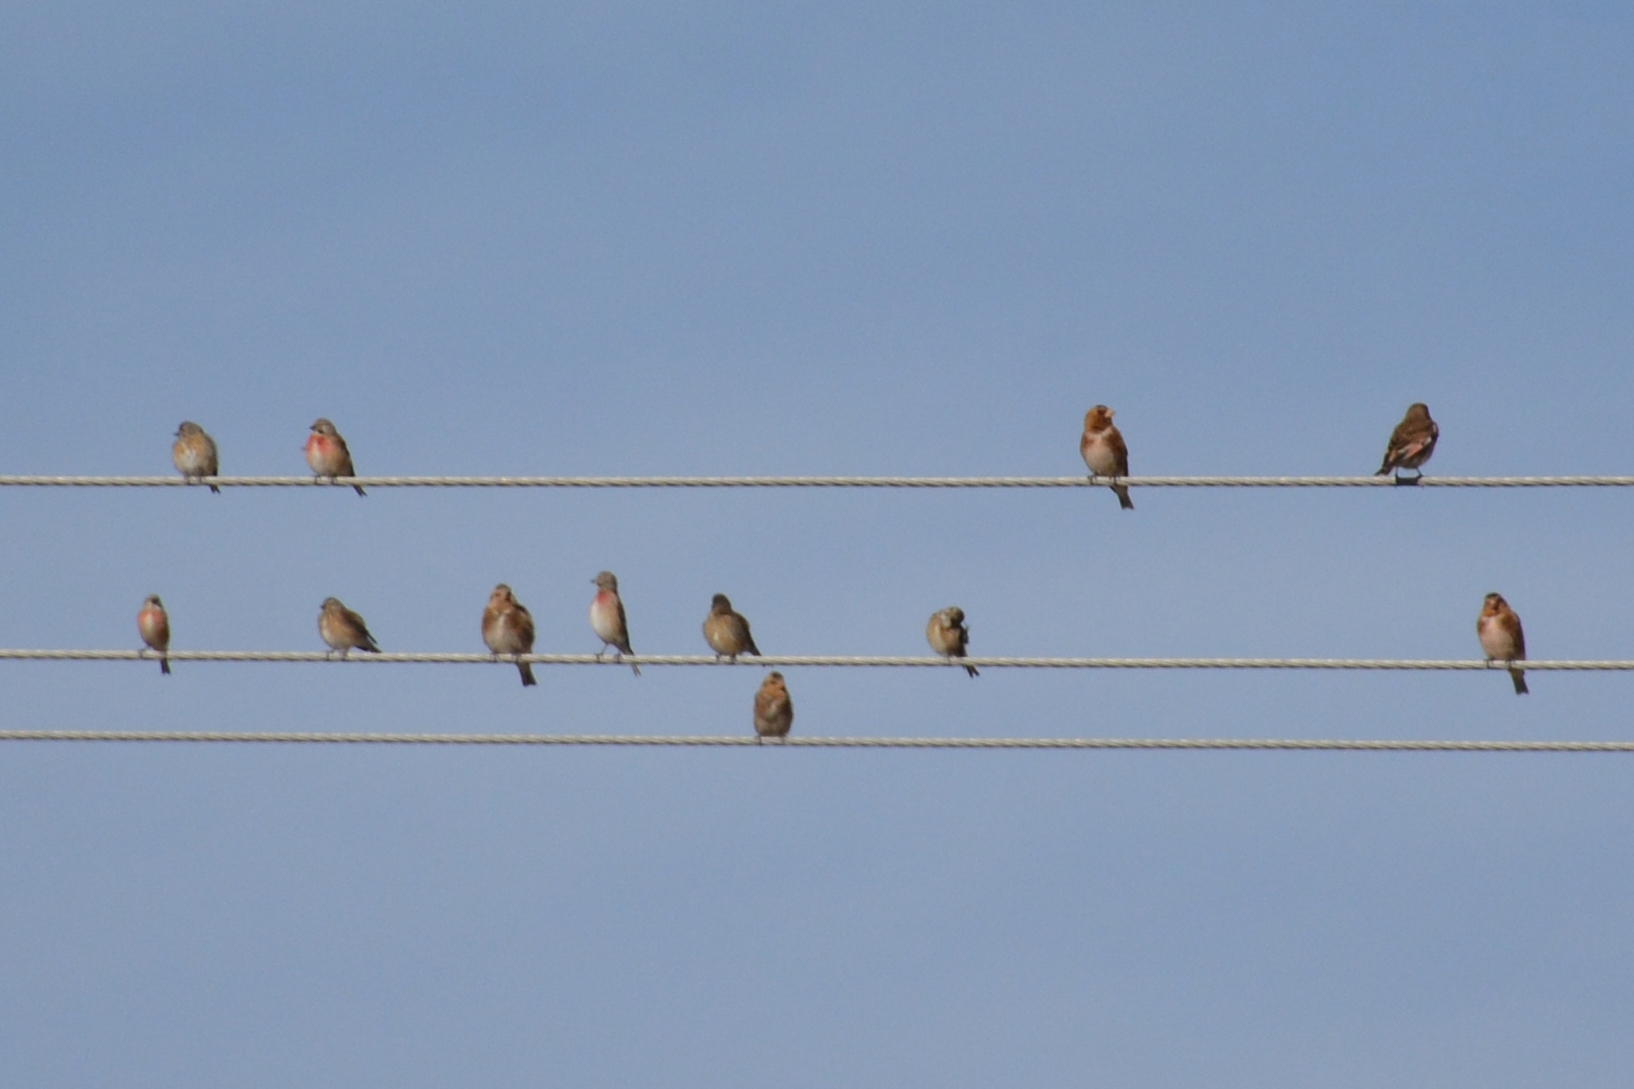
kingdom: Animalia
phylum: Chordata
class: Aves
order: Passeriformes
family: Fringillidae
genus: Rhodopechys
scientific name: Rhodopechys sanguineus
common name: Crimson-winged finch
